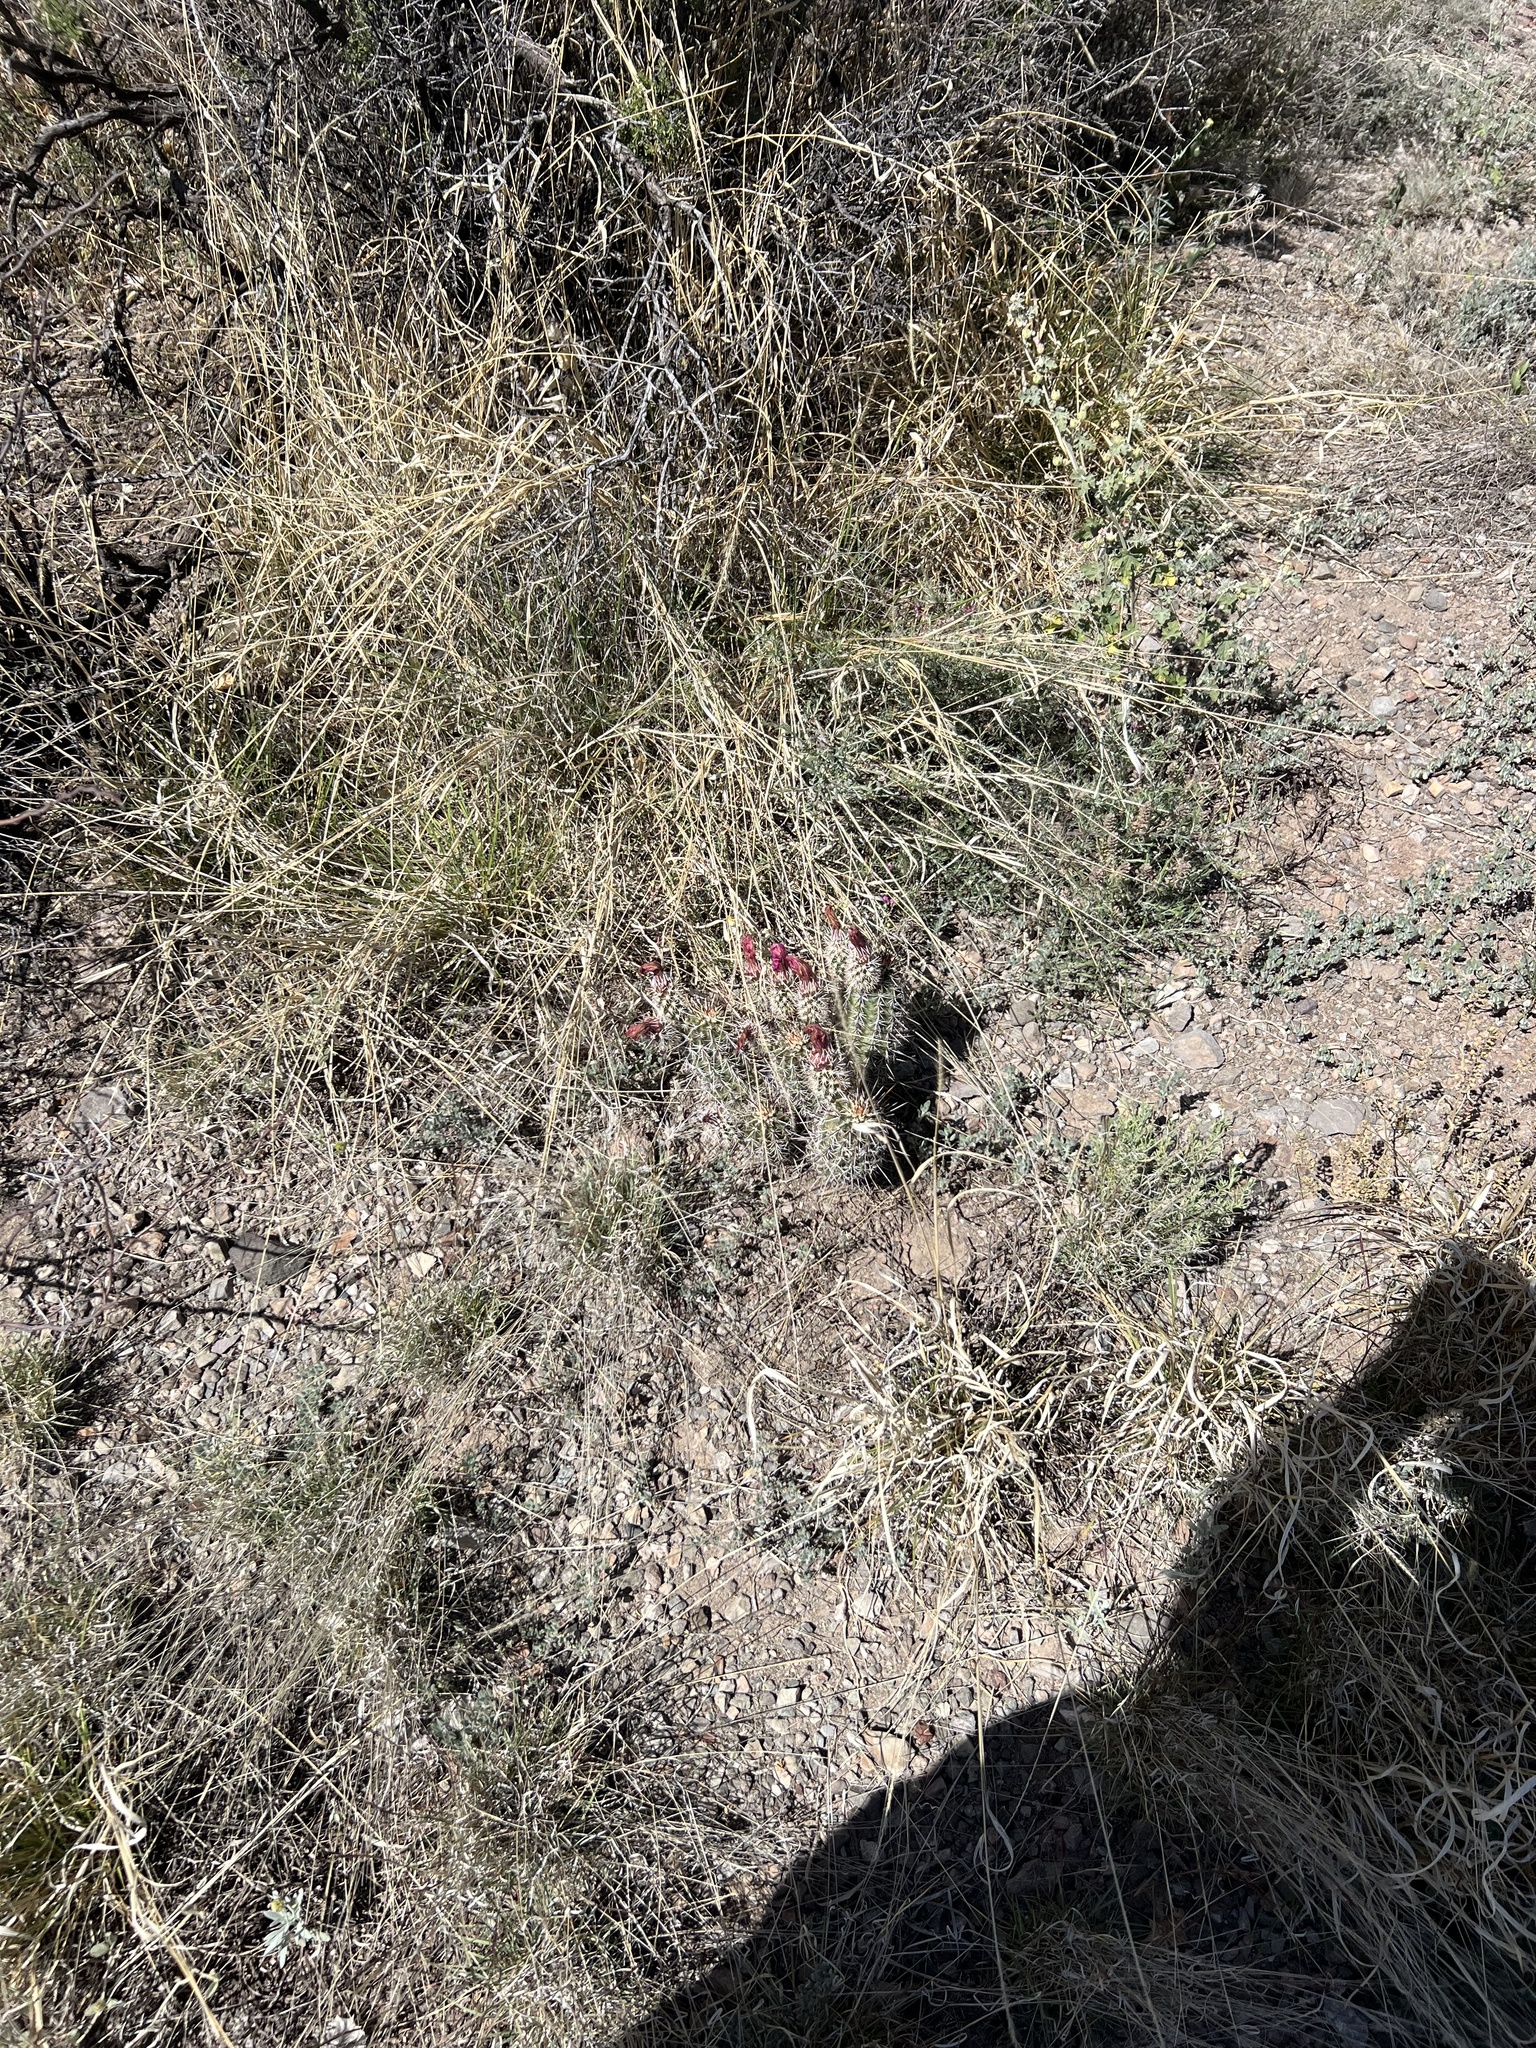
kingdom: Plantae
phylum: Tracheophyta
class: Magnoliopsida
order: Caryophyllales
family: Cactaceae
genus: Echinocereus
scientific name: Echinocereus fasciculatus
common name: Bundle hedgehog
